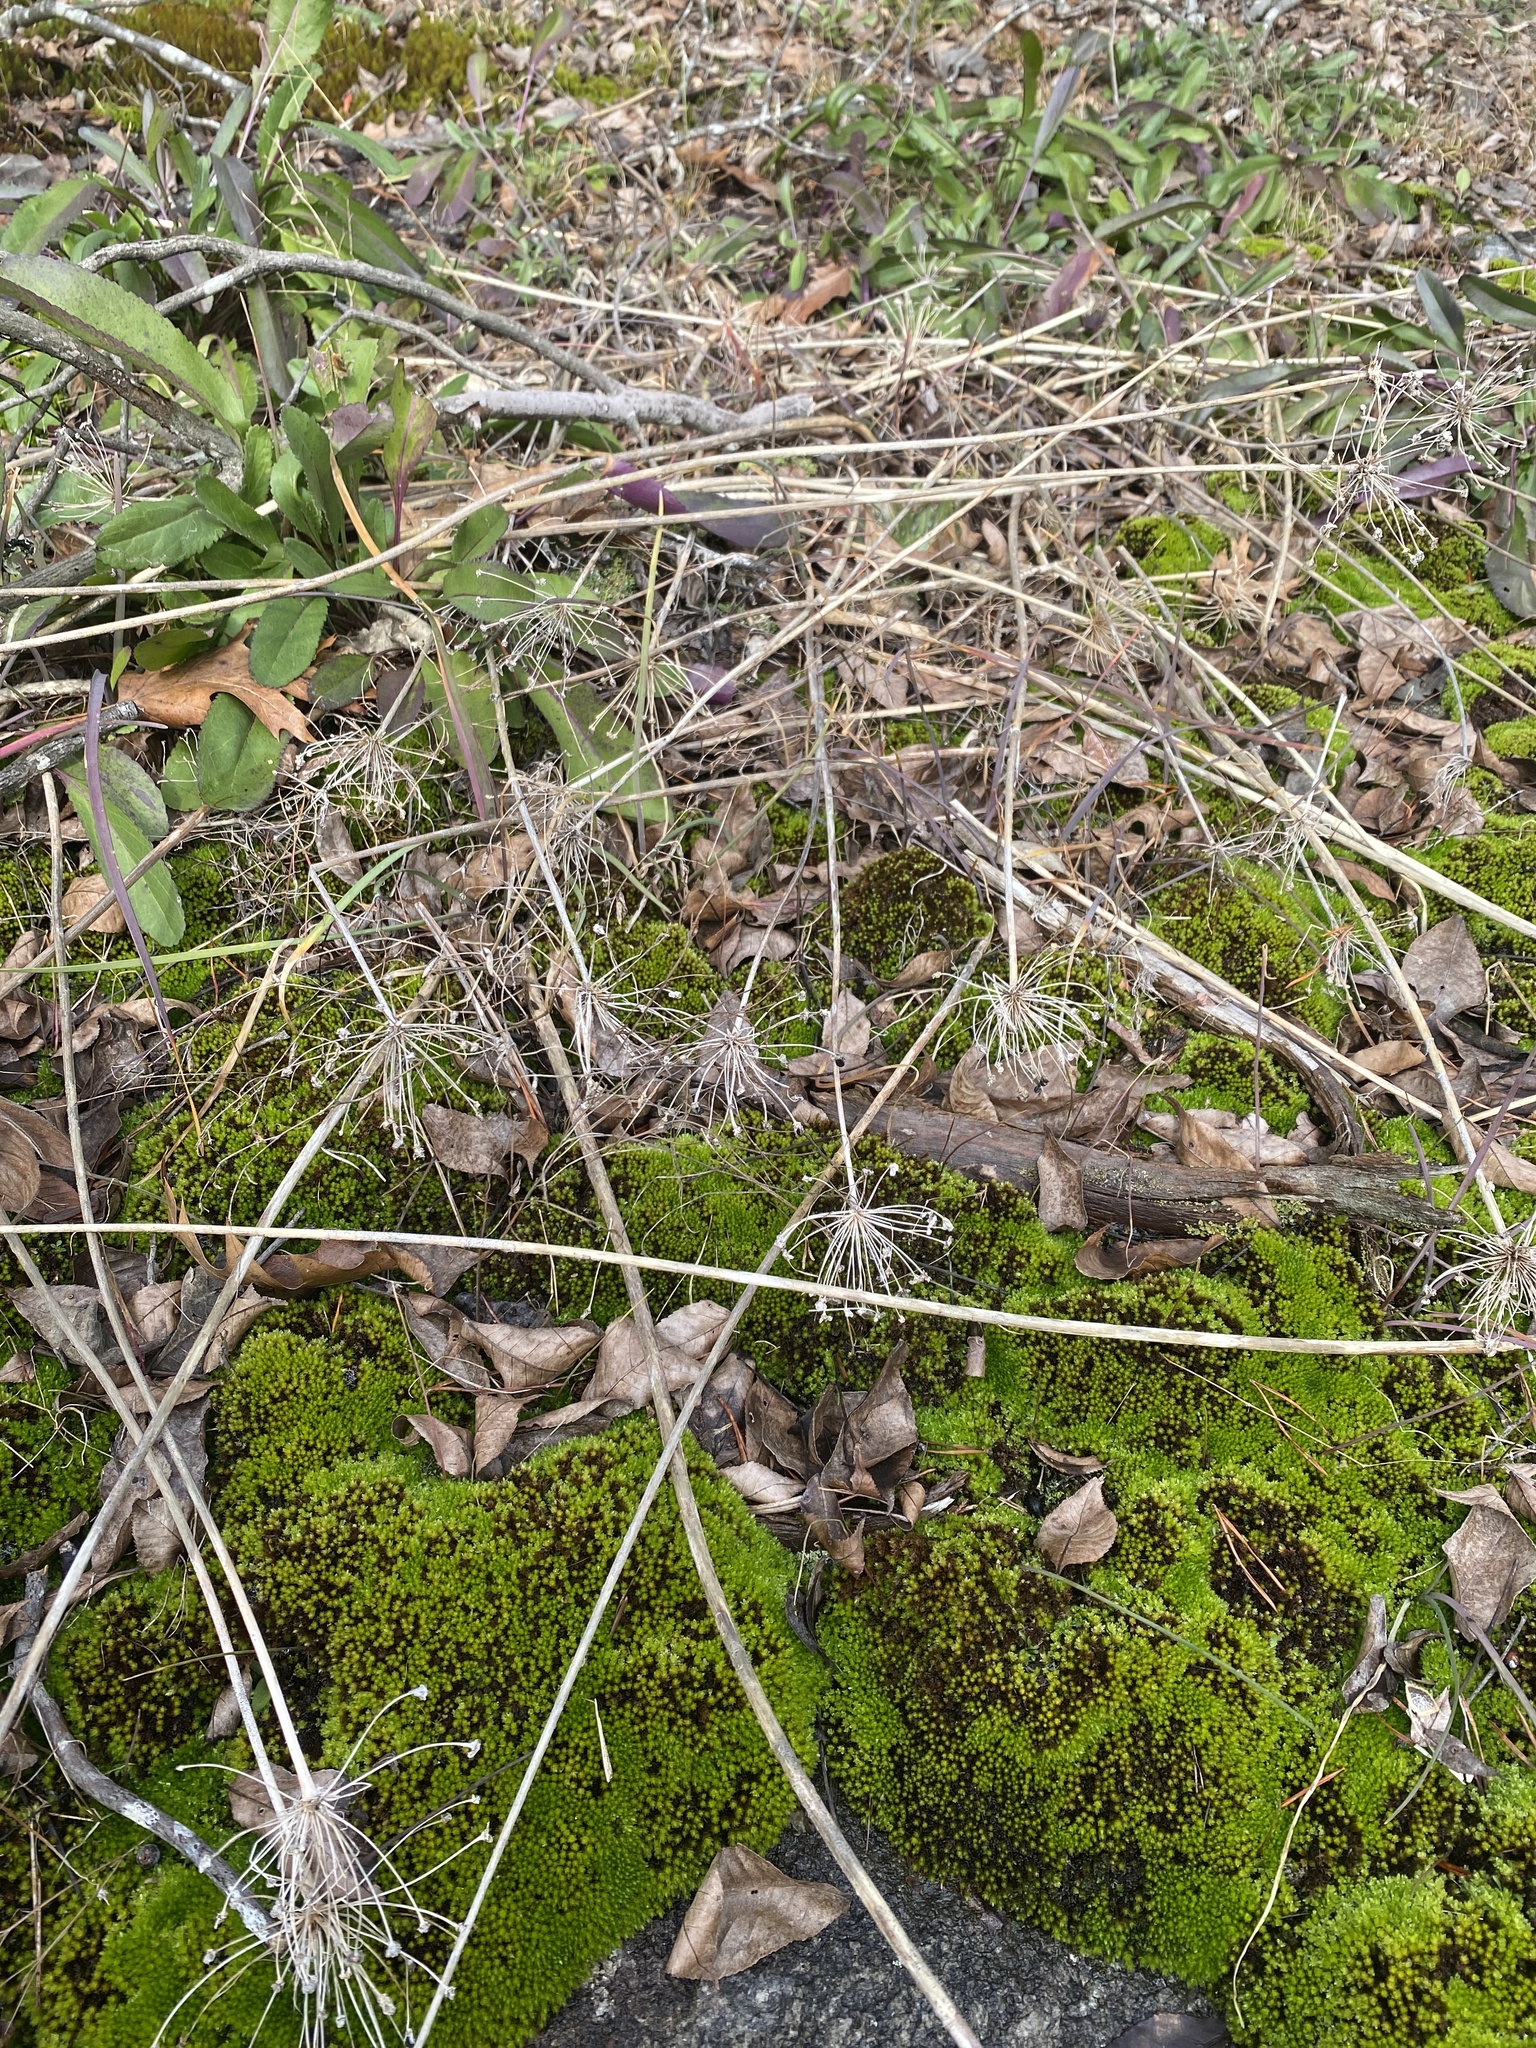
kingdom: Plantae
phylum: Tracheophyta
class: Liliopsida
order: Asparagales
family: Amaryllidaceae
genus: Allium
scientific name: Allium keeverae
